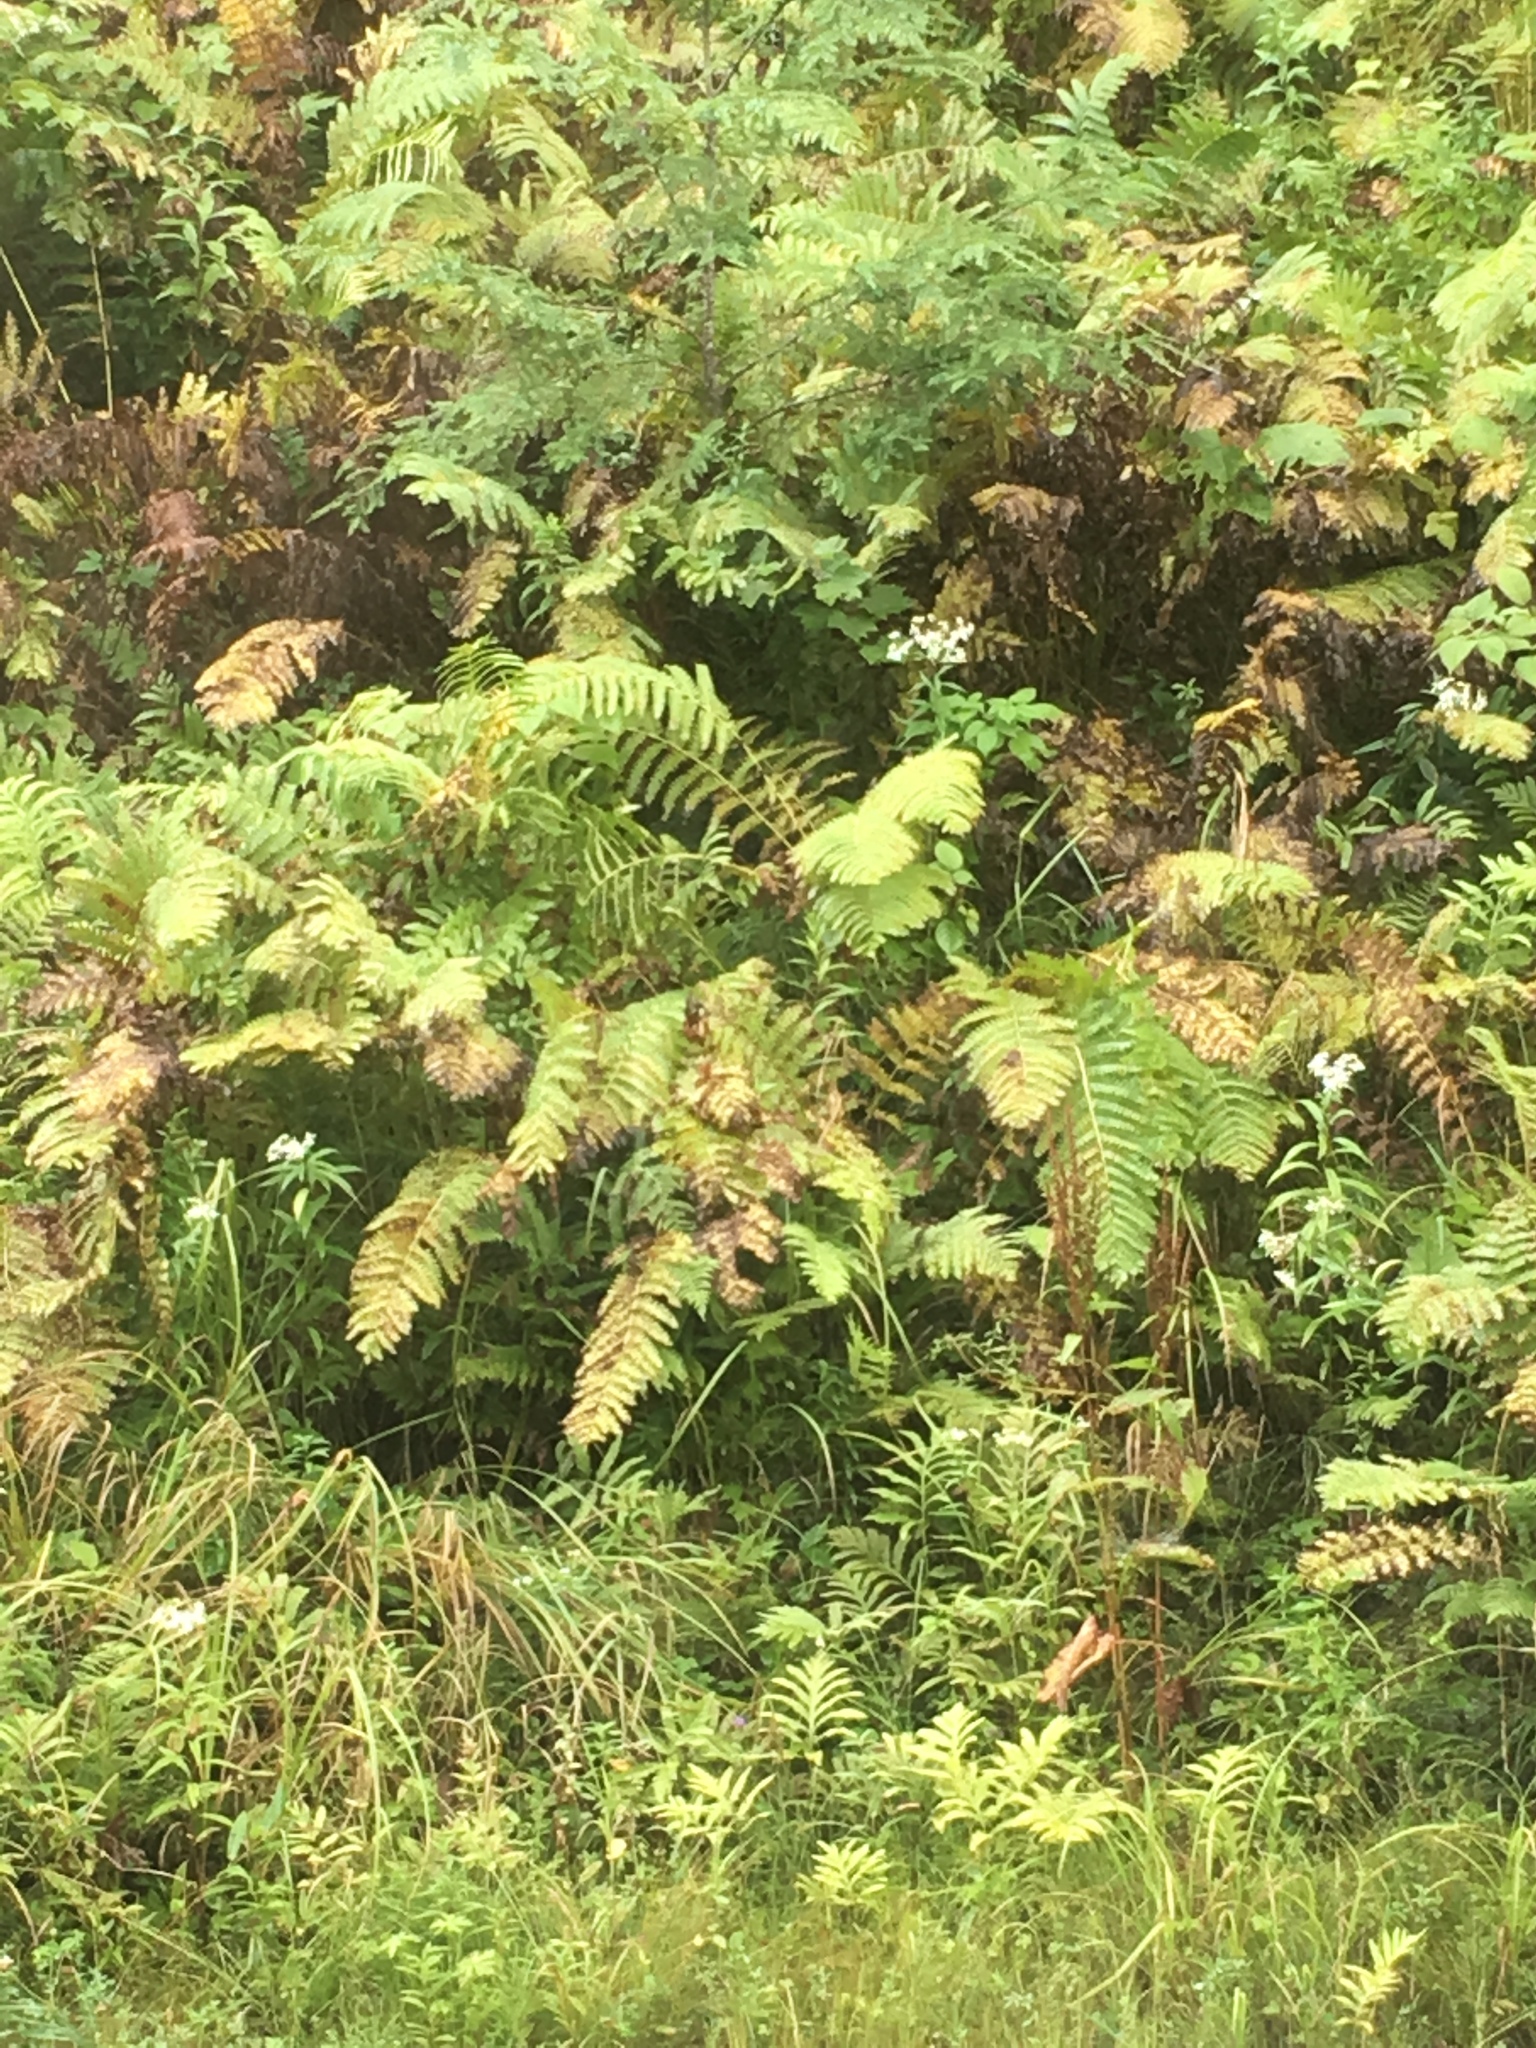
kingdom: Plantae
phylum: Tracheophyta
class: Polypodiopsida
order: Polypodiales
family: Onocleaceae
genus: Matteuccia
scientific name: Matteuccia struthiopteris
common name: Ostrich fern
